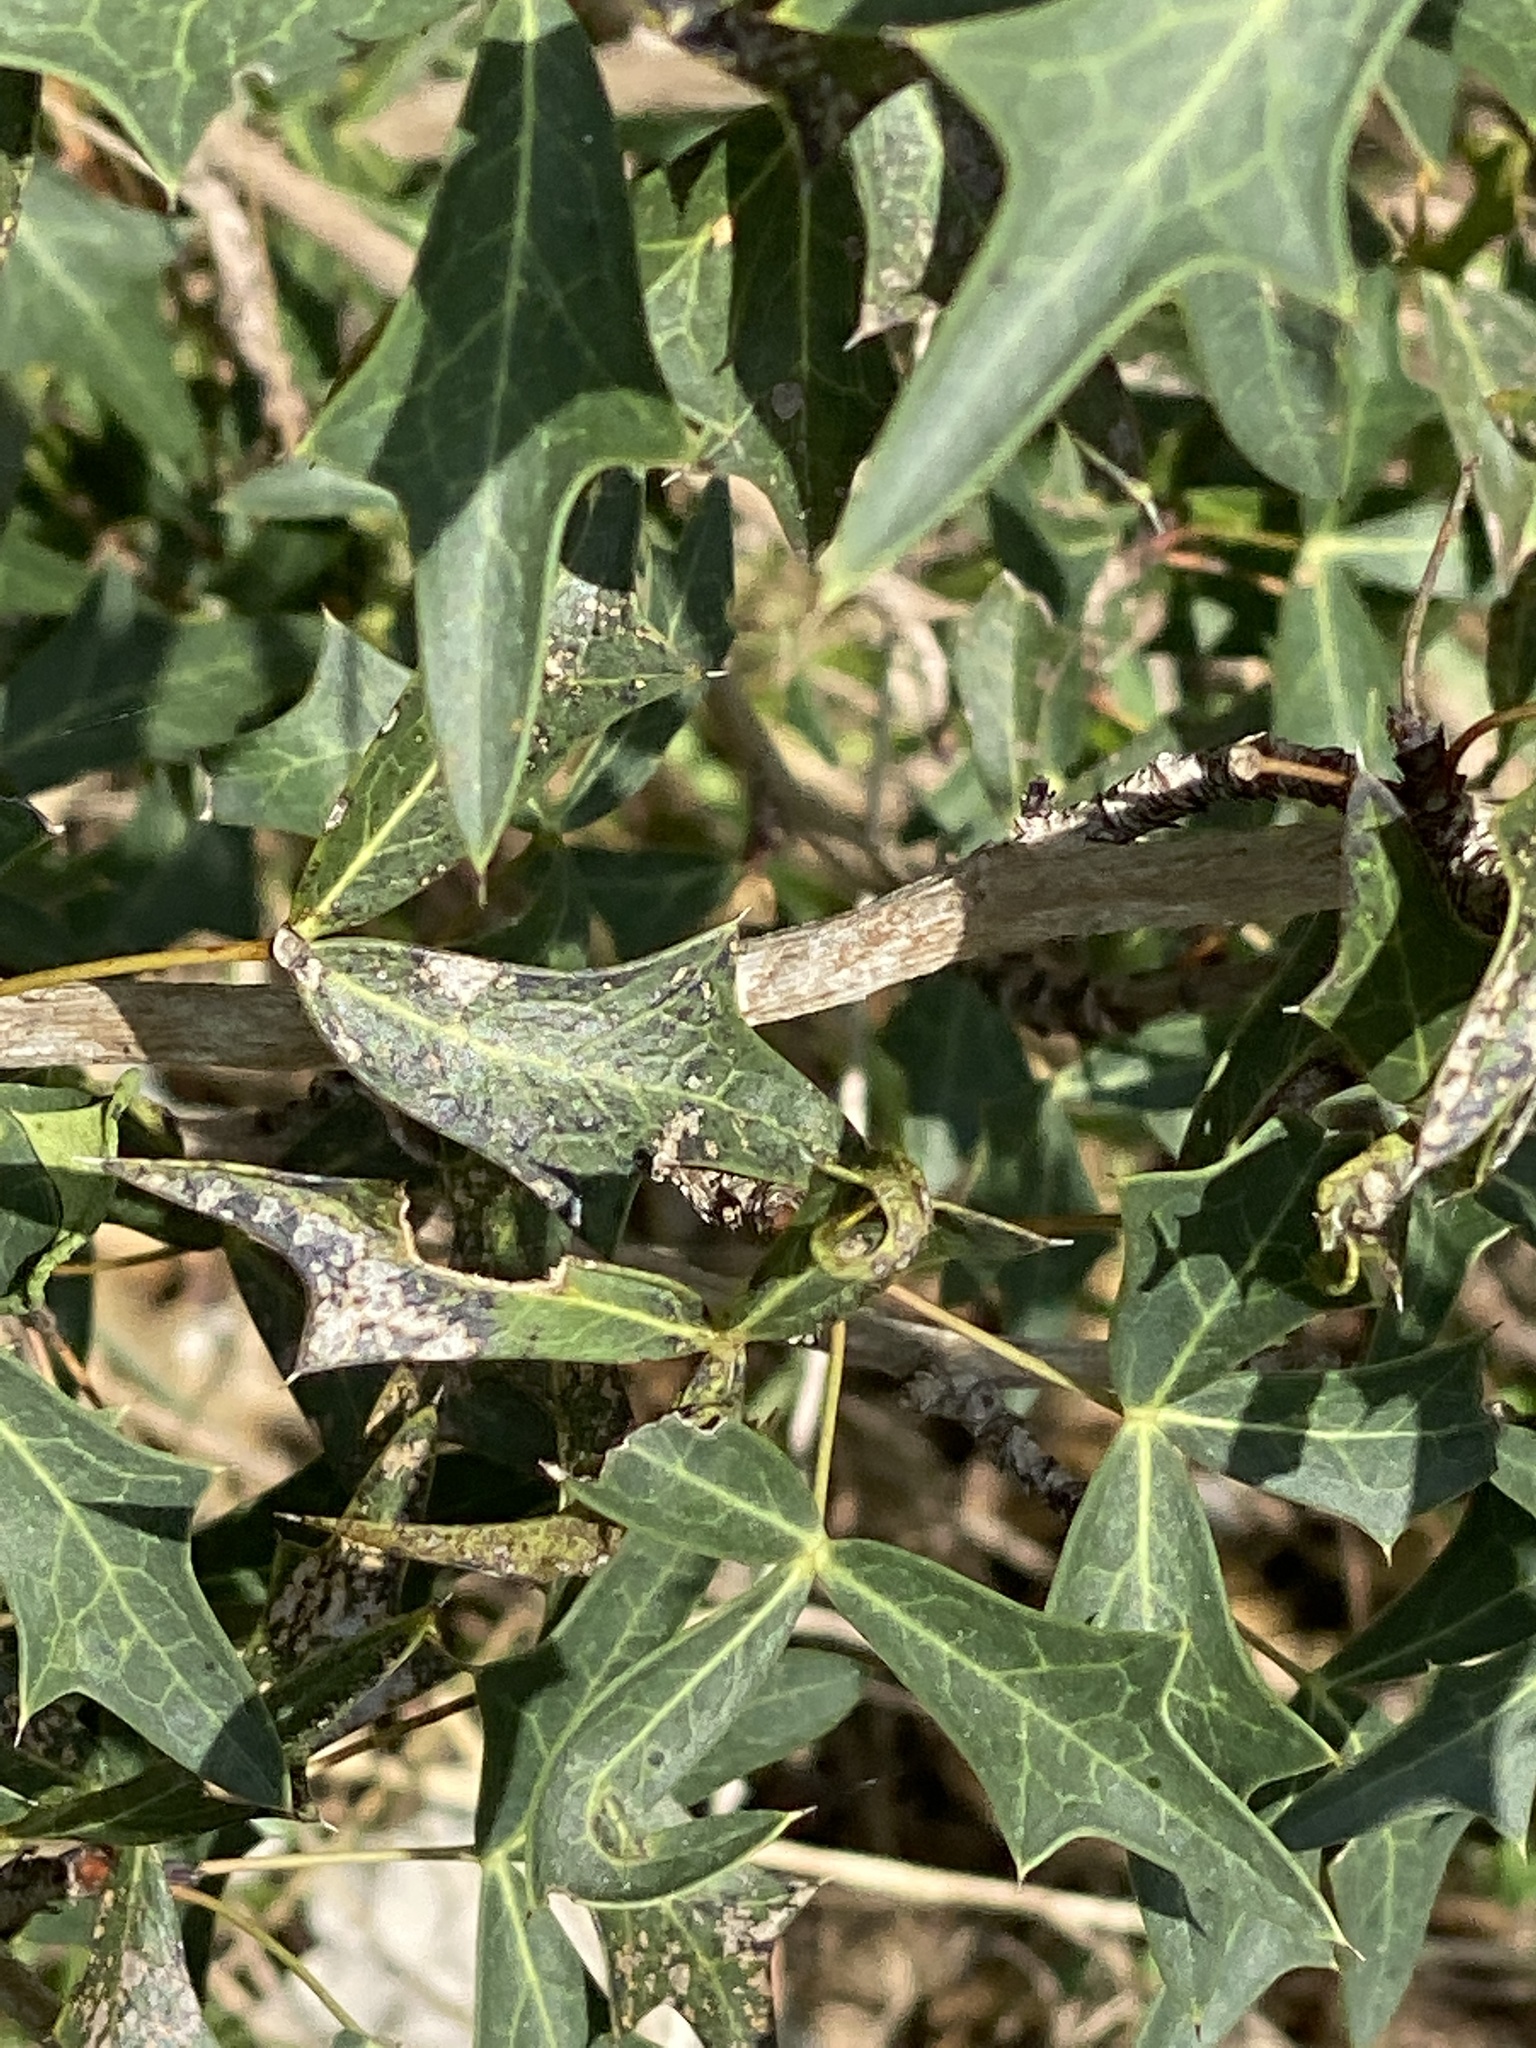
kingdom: Plantae
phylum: Tracheophyta
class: Magnoliopsida
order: Ranunculales
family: Berberidaceae
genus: Alloberberis
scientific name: Alloberberis trifoliolata
